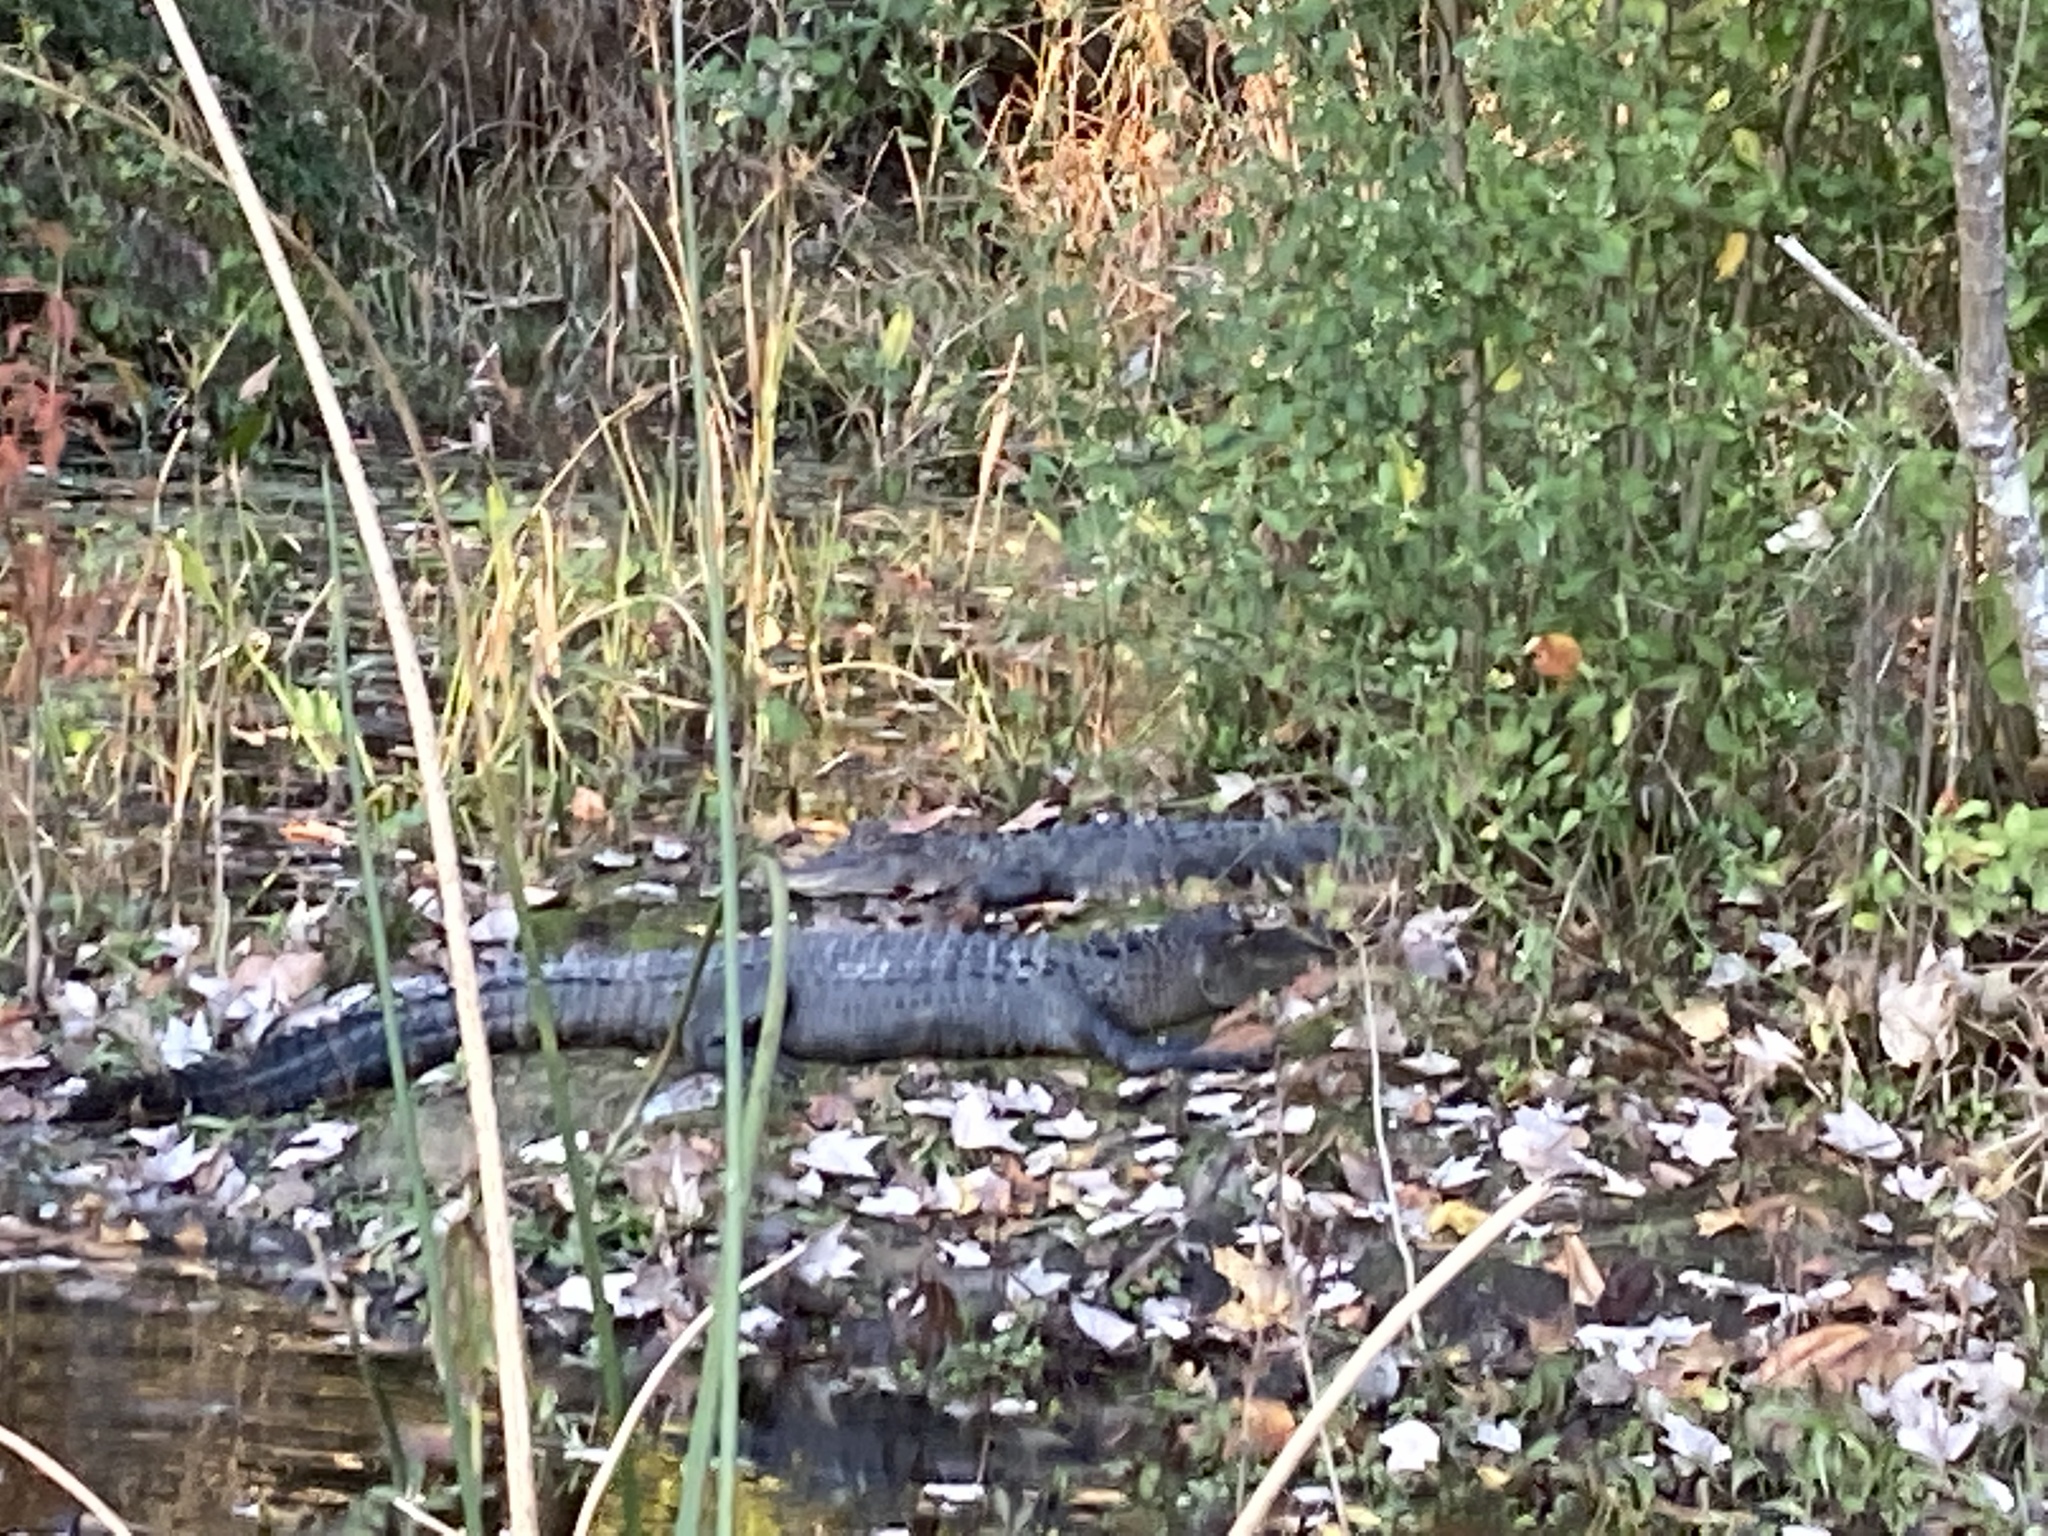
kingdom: Animalia
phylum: Chordata
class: Crocodylia
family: Alligatoridae
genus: Alligator
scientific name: Alligator mississippiensis
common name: American alligator
